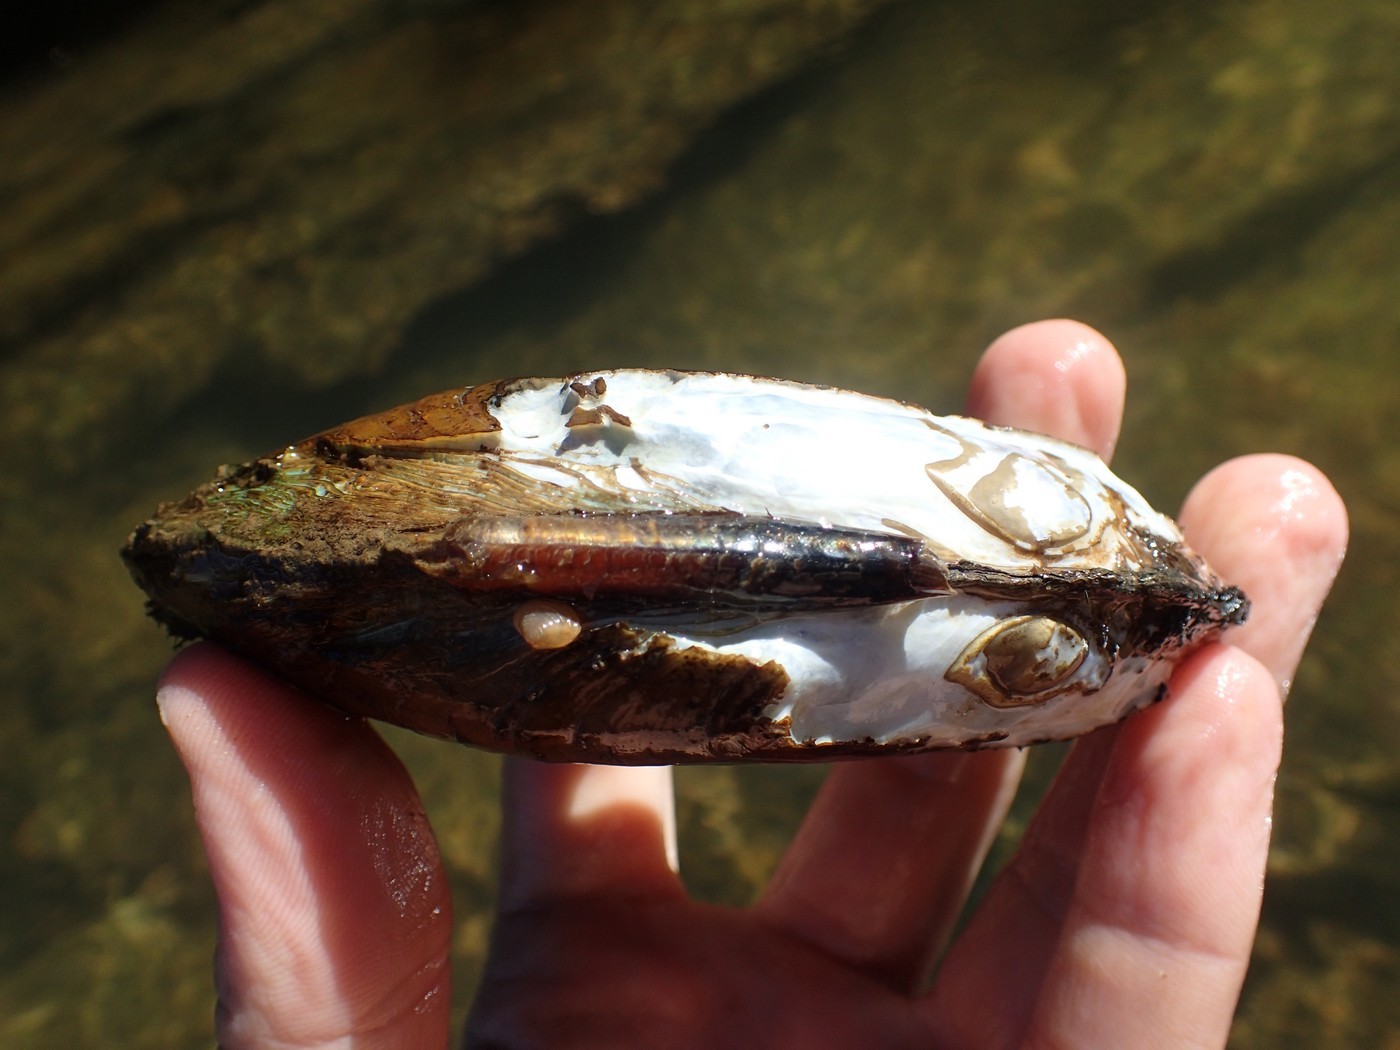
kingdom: Animalia
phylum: Mollusca
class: Bivalvia
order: Unionida
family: Unionidae
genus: Ptychobranchus
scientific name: Ptychobranchus fasciolaris
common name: Kidneyshell
